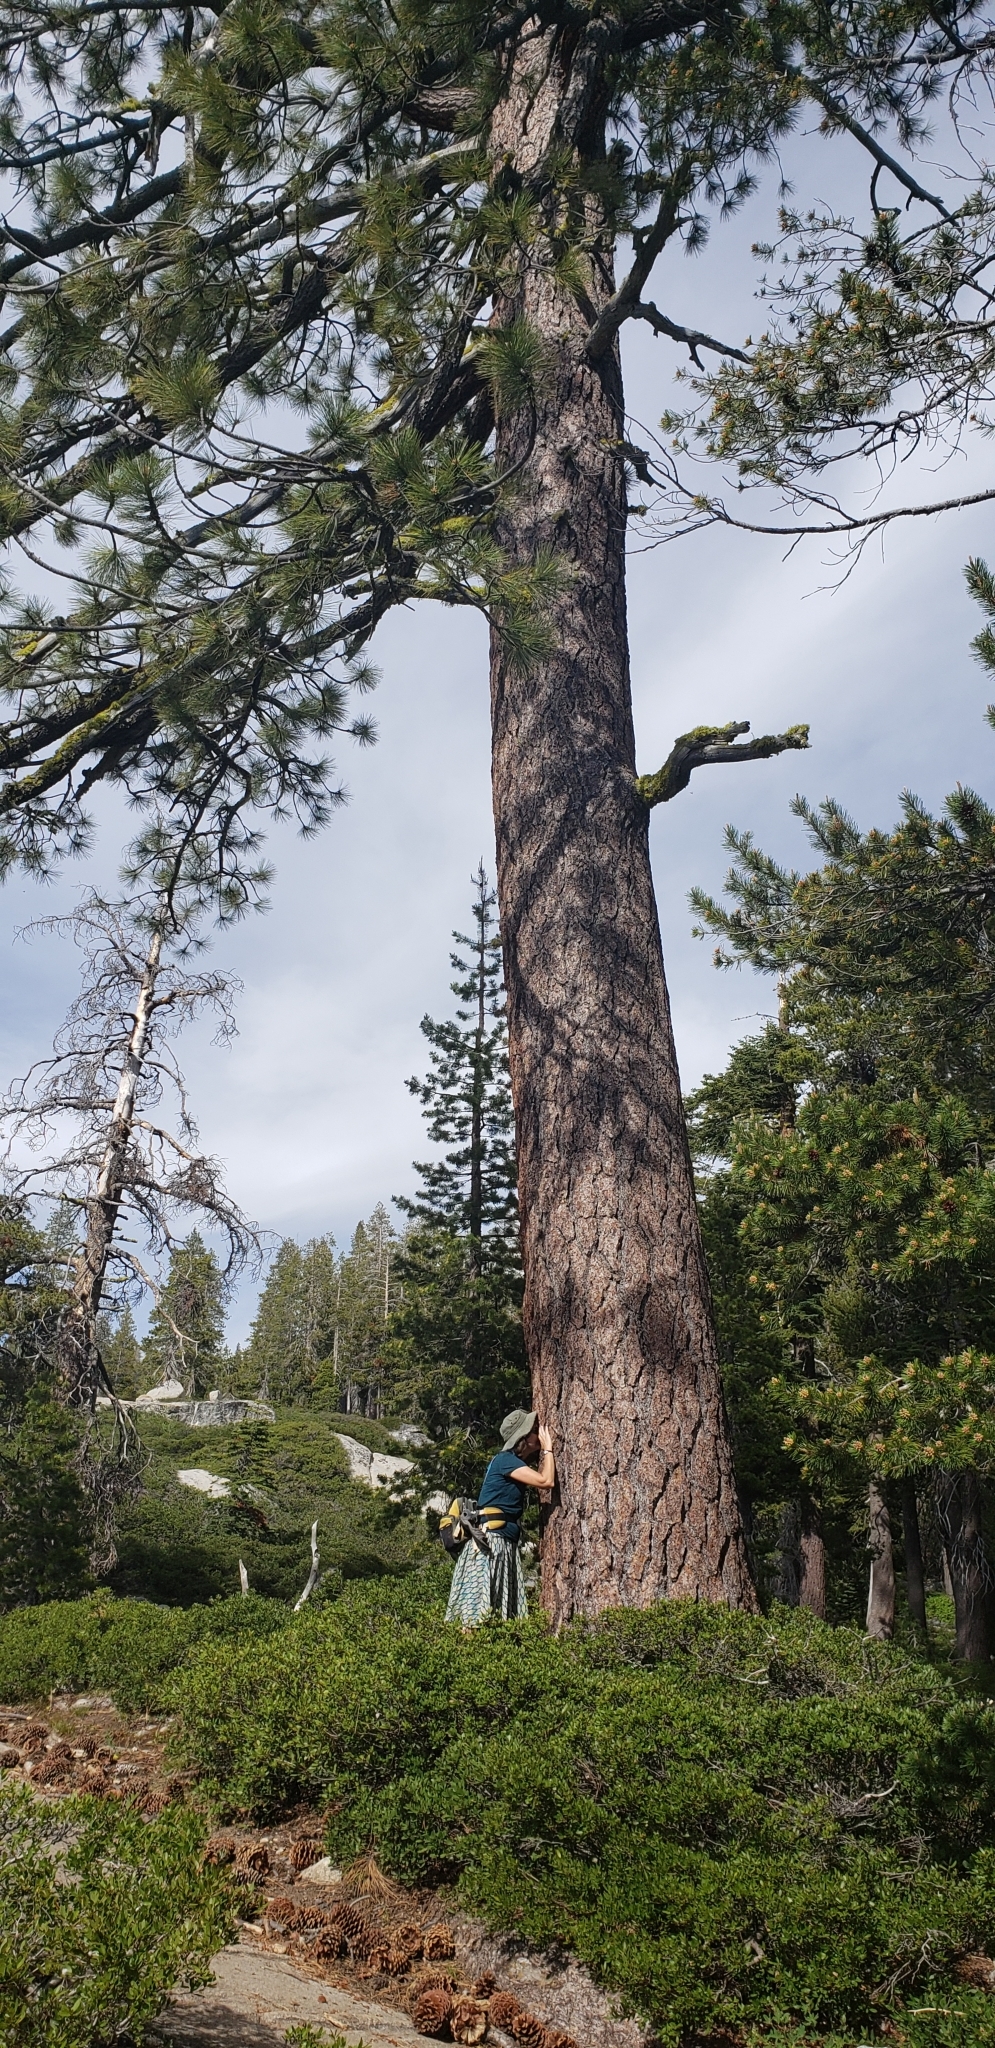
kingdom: Plantae
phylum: Tracheophyta
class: Pinopsida
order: Pinales
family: Pinaceae
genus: Pinus
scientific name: Pinus jeffreyi
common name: Jeffrey pine
